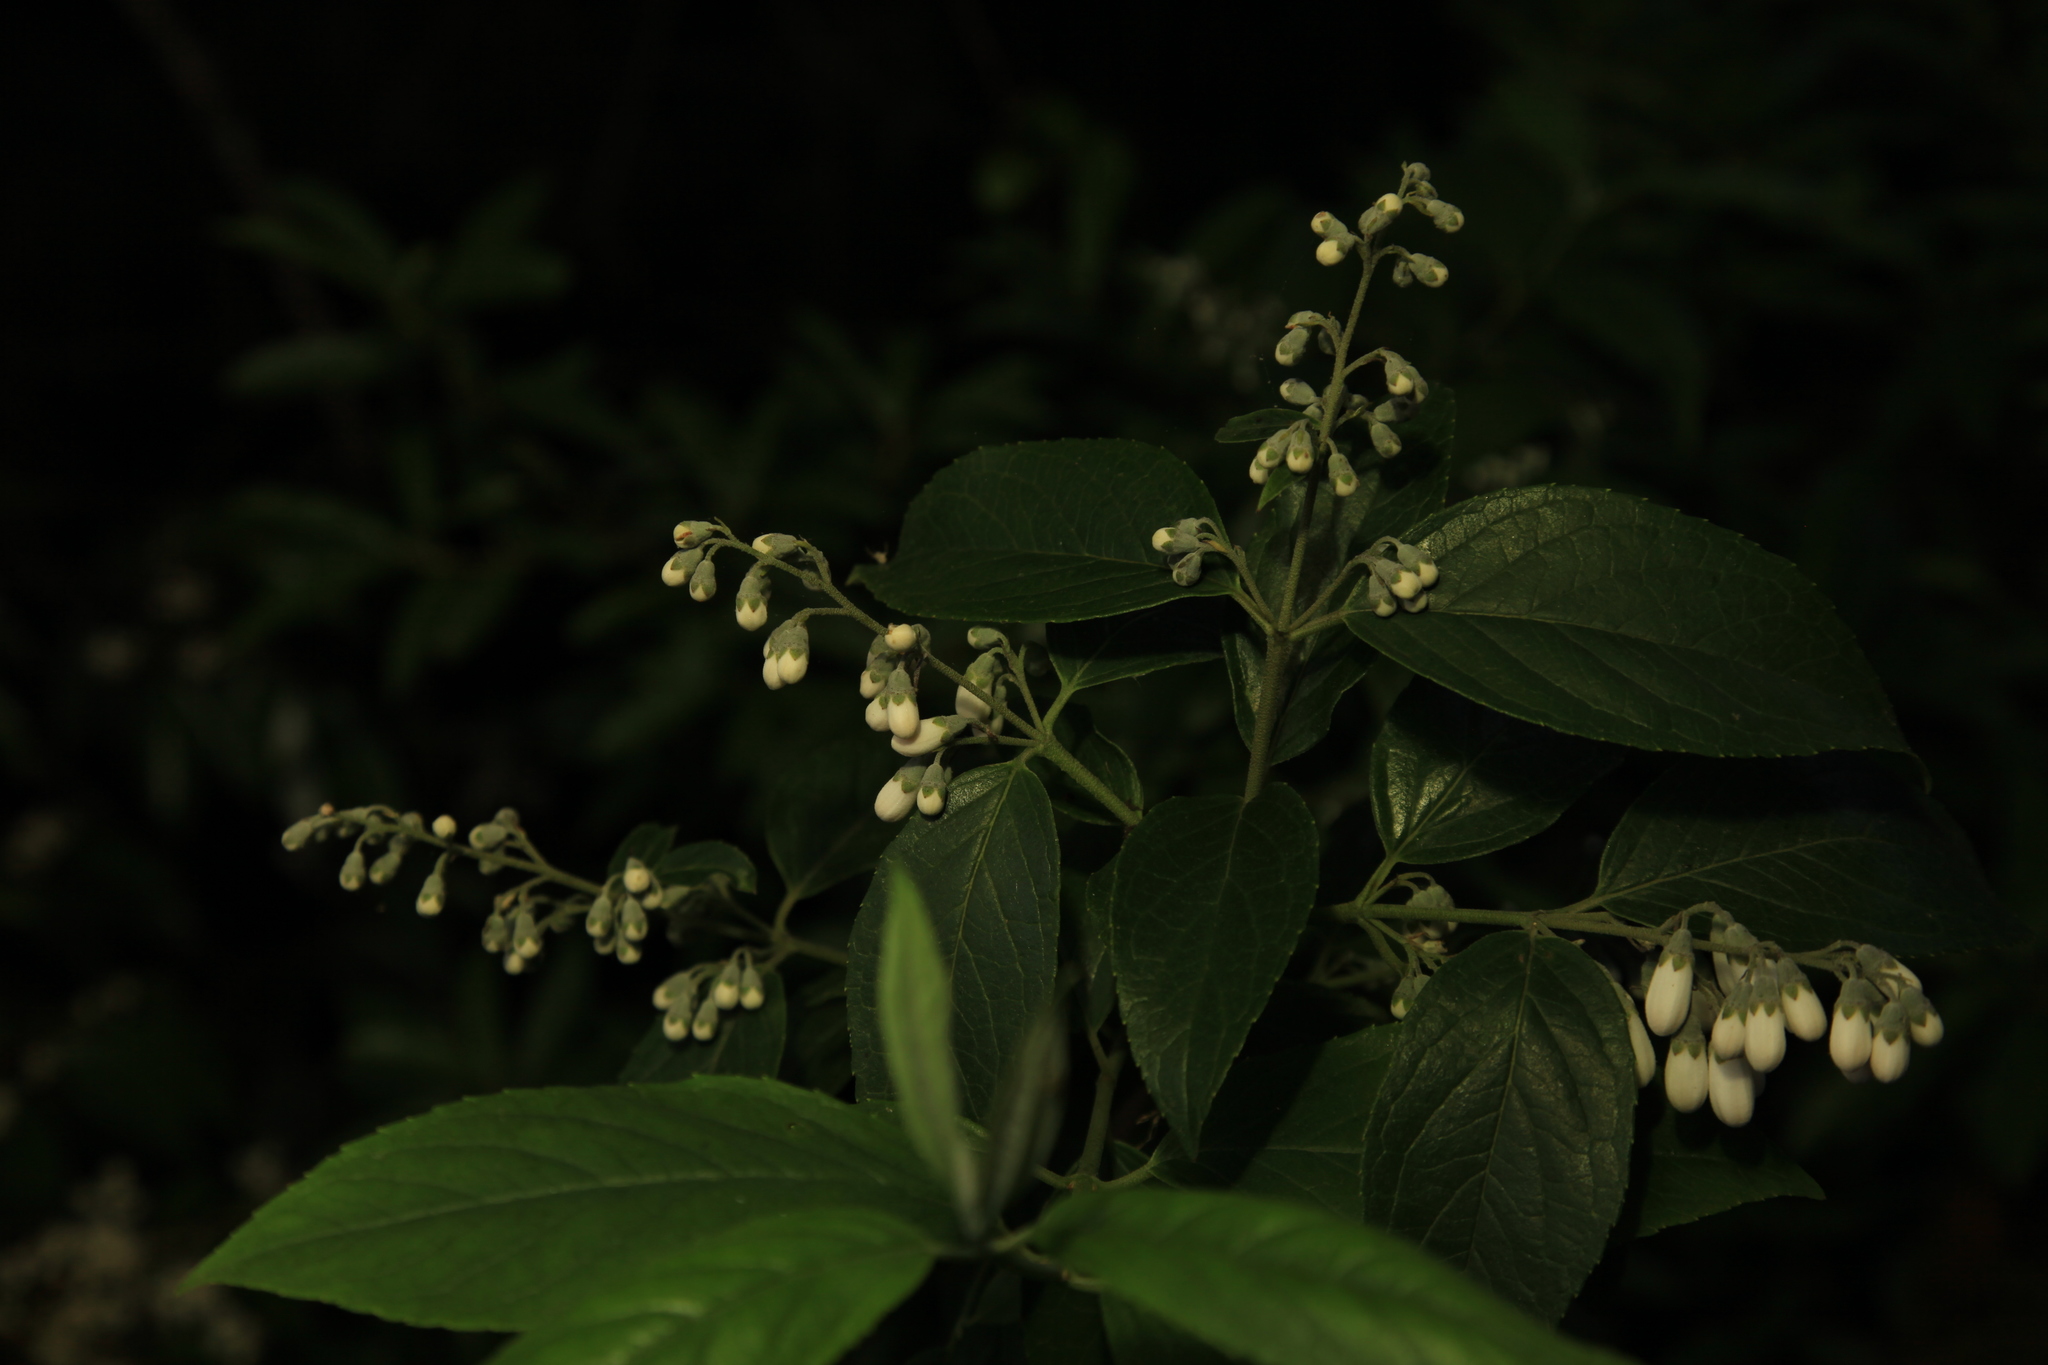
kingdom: Plantae
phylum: Tracheophyta
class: Magnoliopsida
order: Cornales
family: Hydrangeaceae
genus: Deutzia
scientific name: Deutzia pulchra
